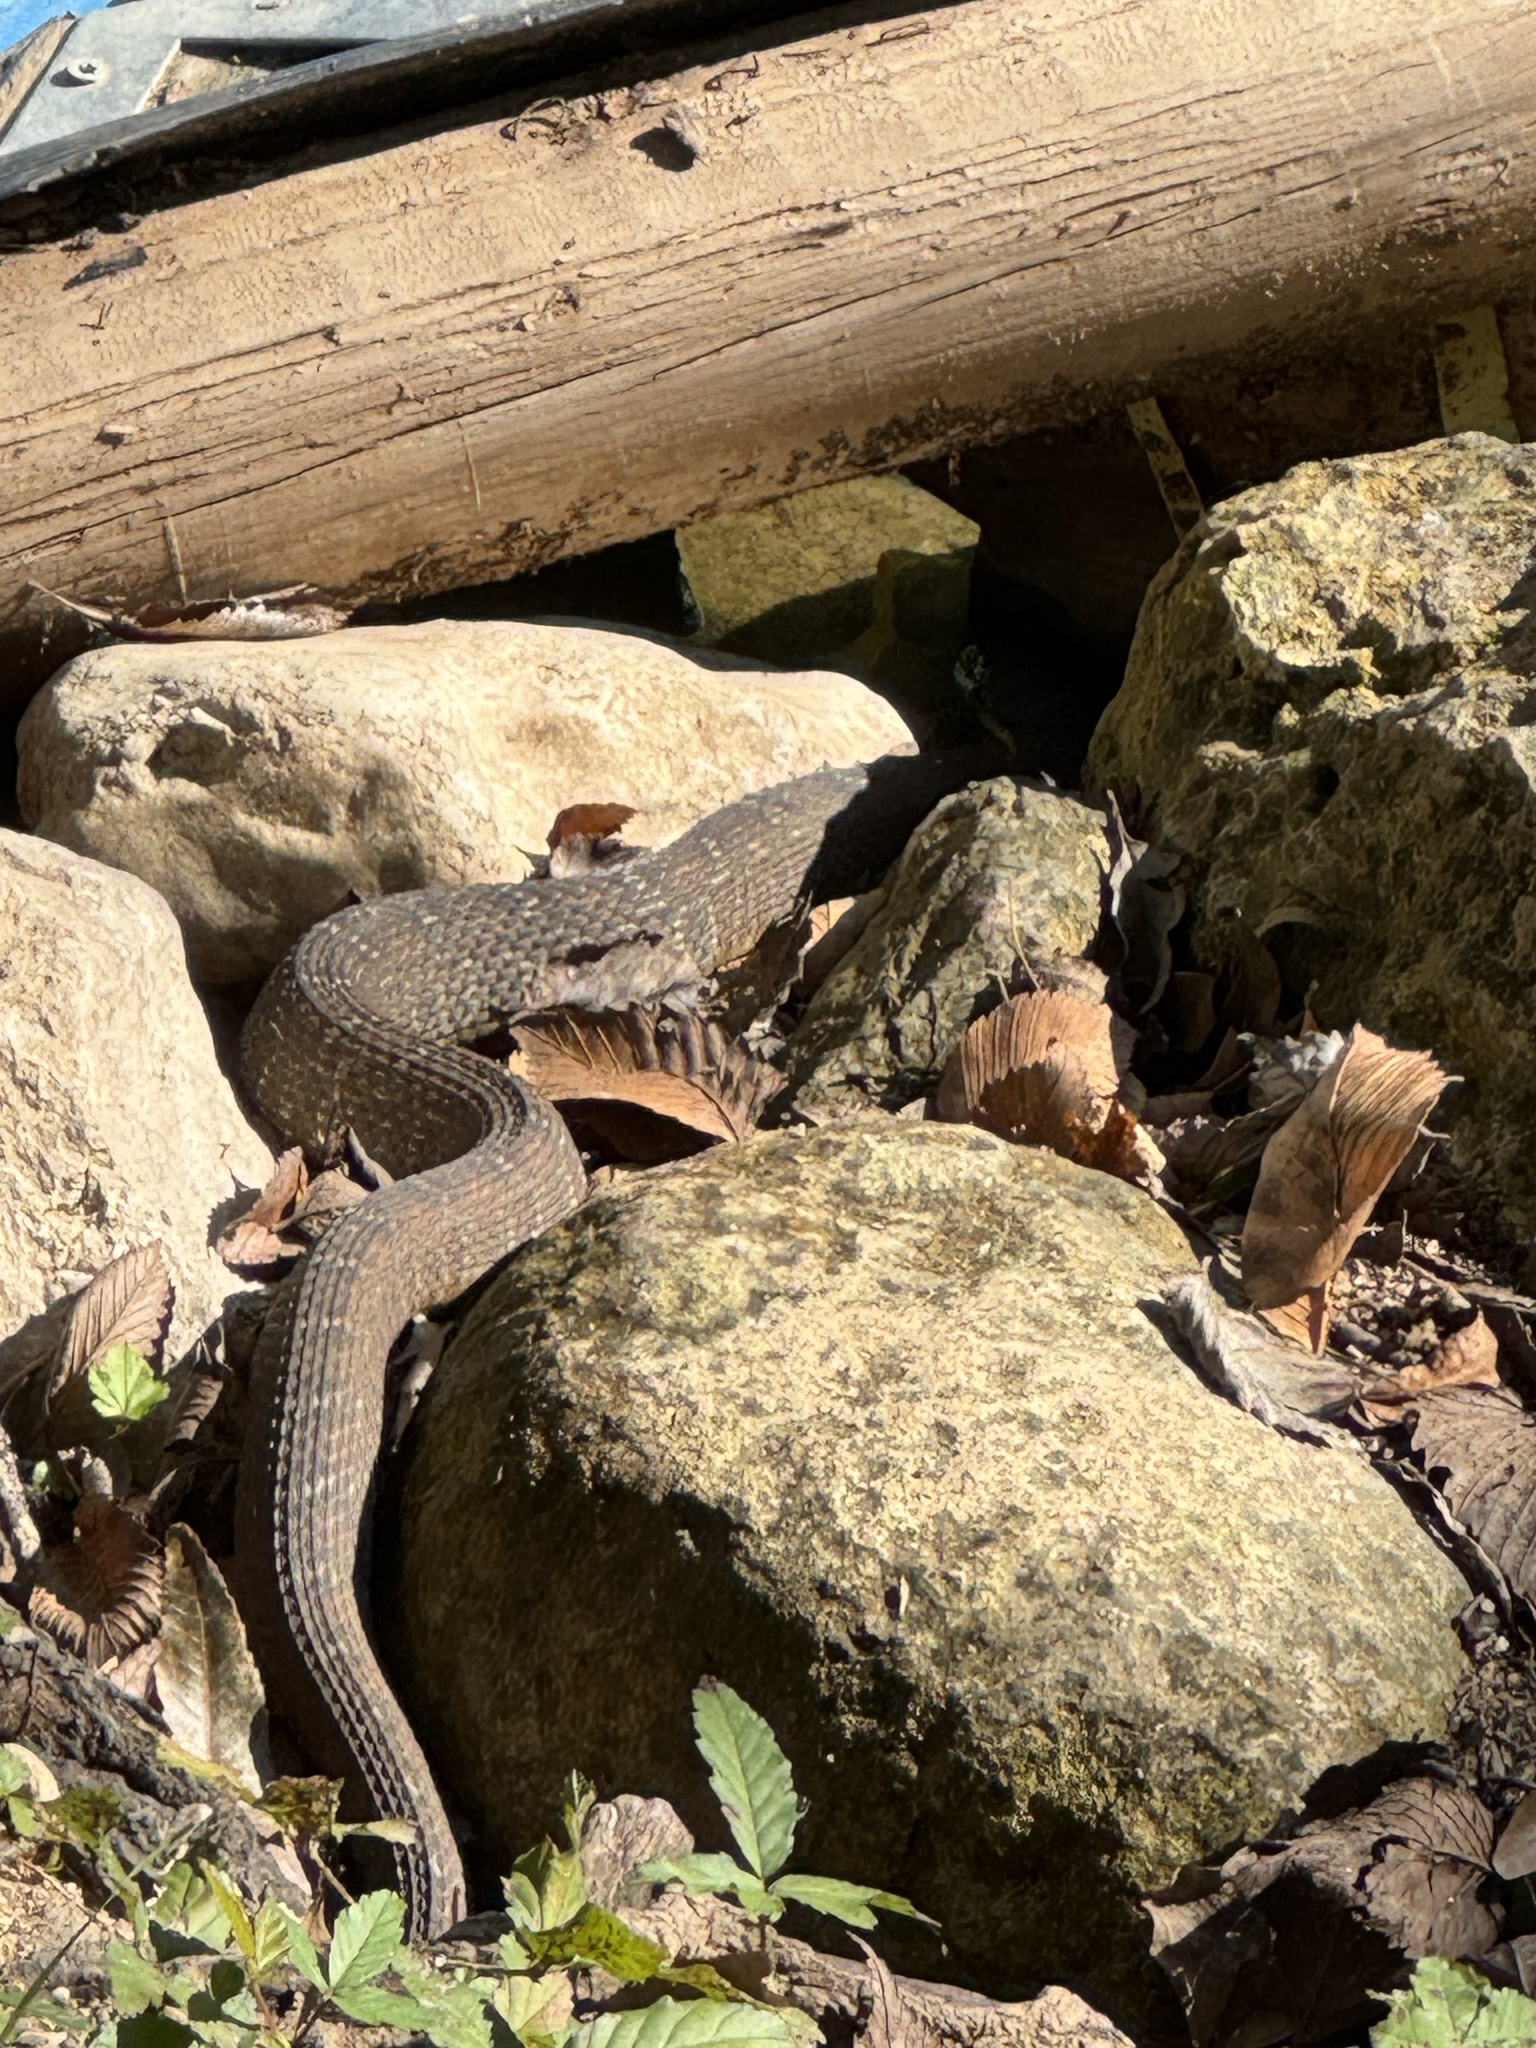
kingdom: Animalia
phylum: Chordata
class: Squamata
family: Colubridae
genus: Nerodia
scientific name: Nerodia erythrogaster
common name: Plainbelly water snake
